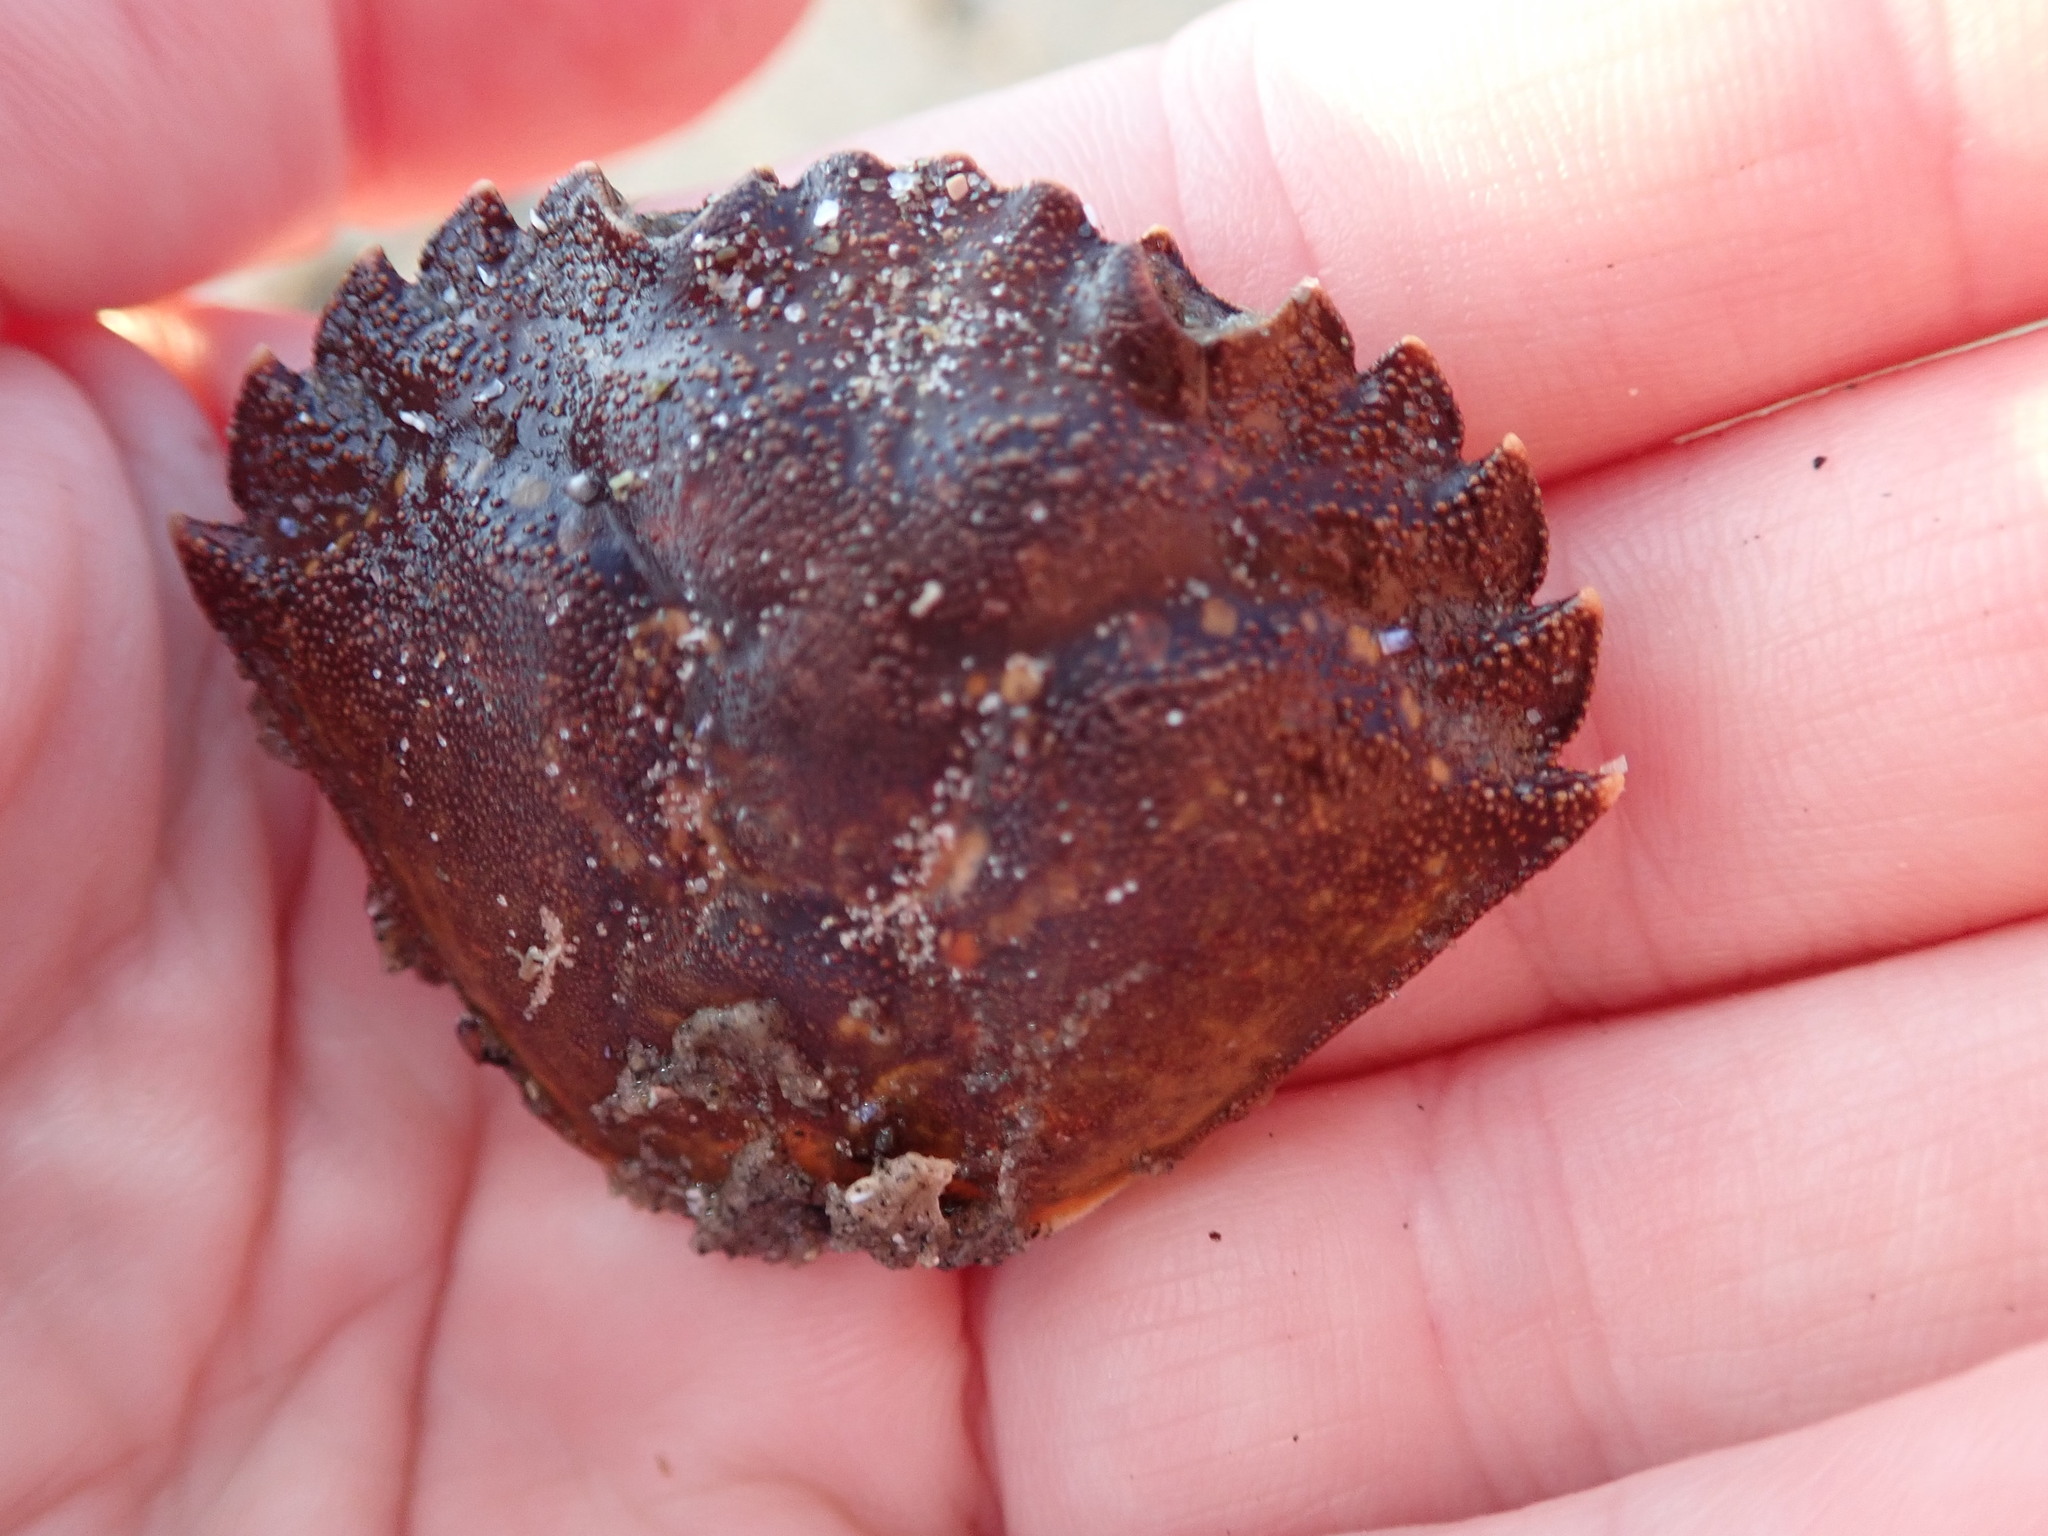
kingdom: Animalia
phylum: Arthropoda
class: Malacostraca
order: Decapoda
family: Carcinidae
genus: Carcinus
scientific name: Carcinus maenas
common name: European green crab
